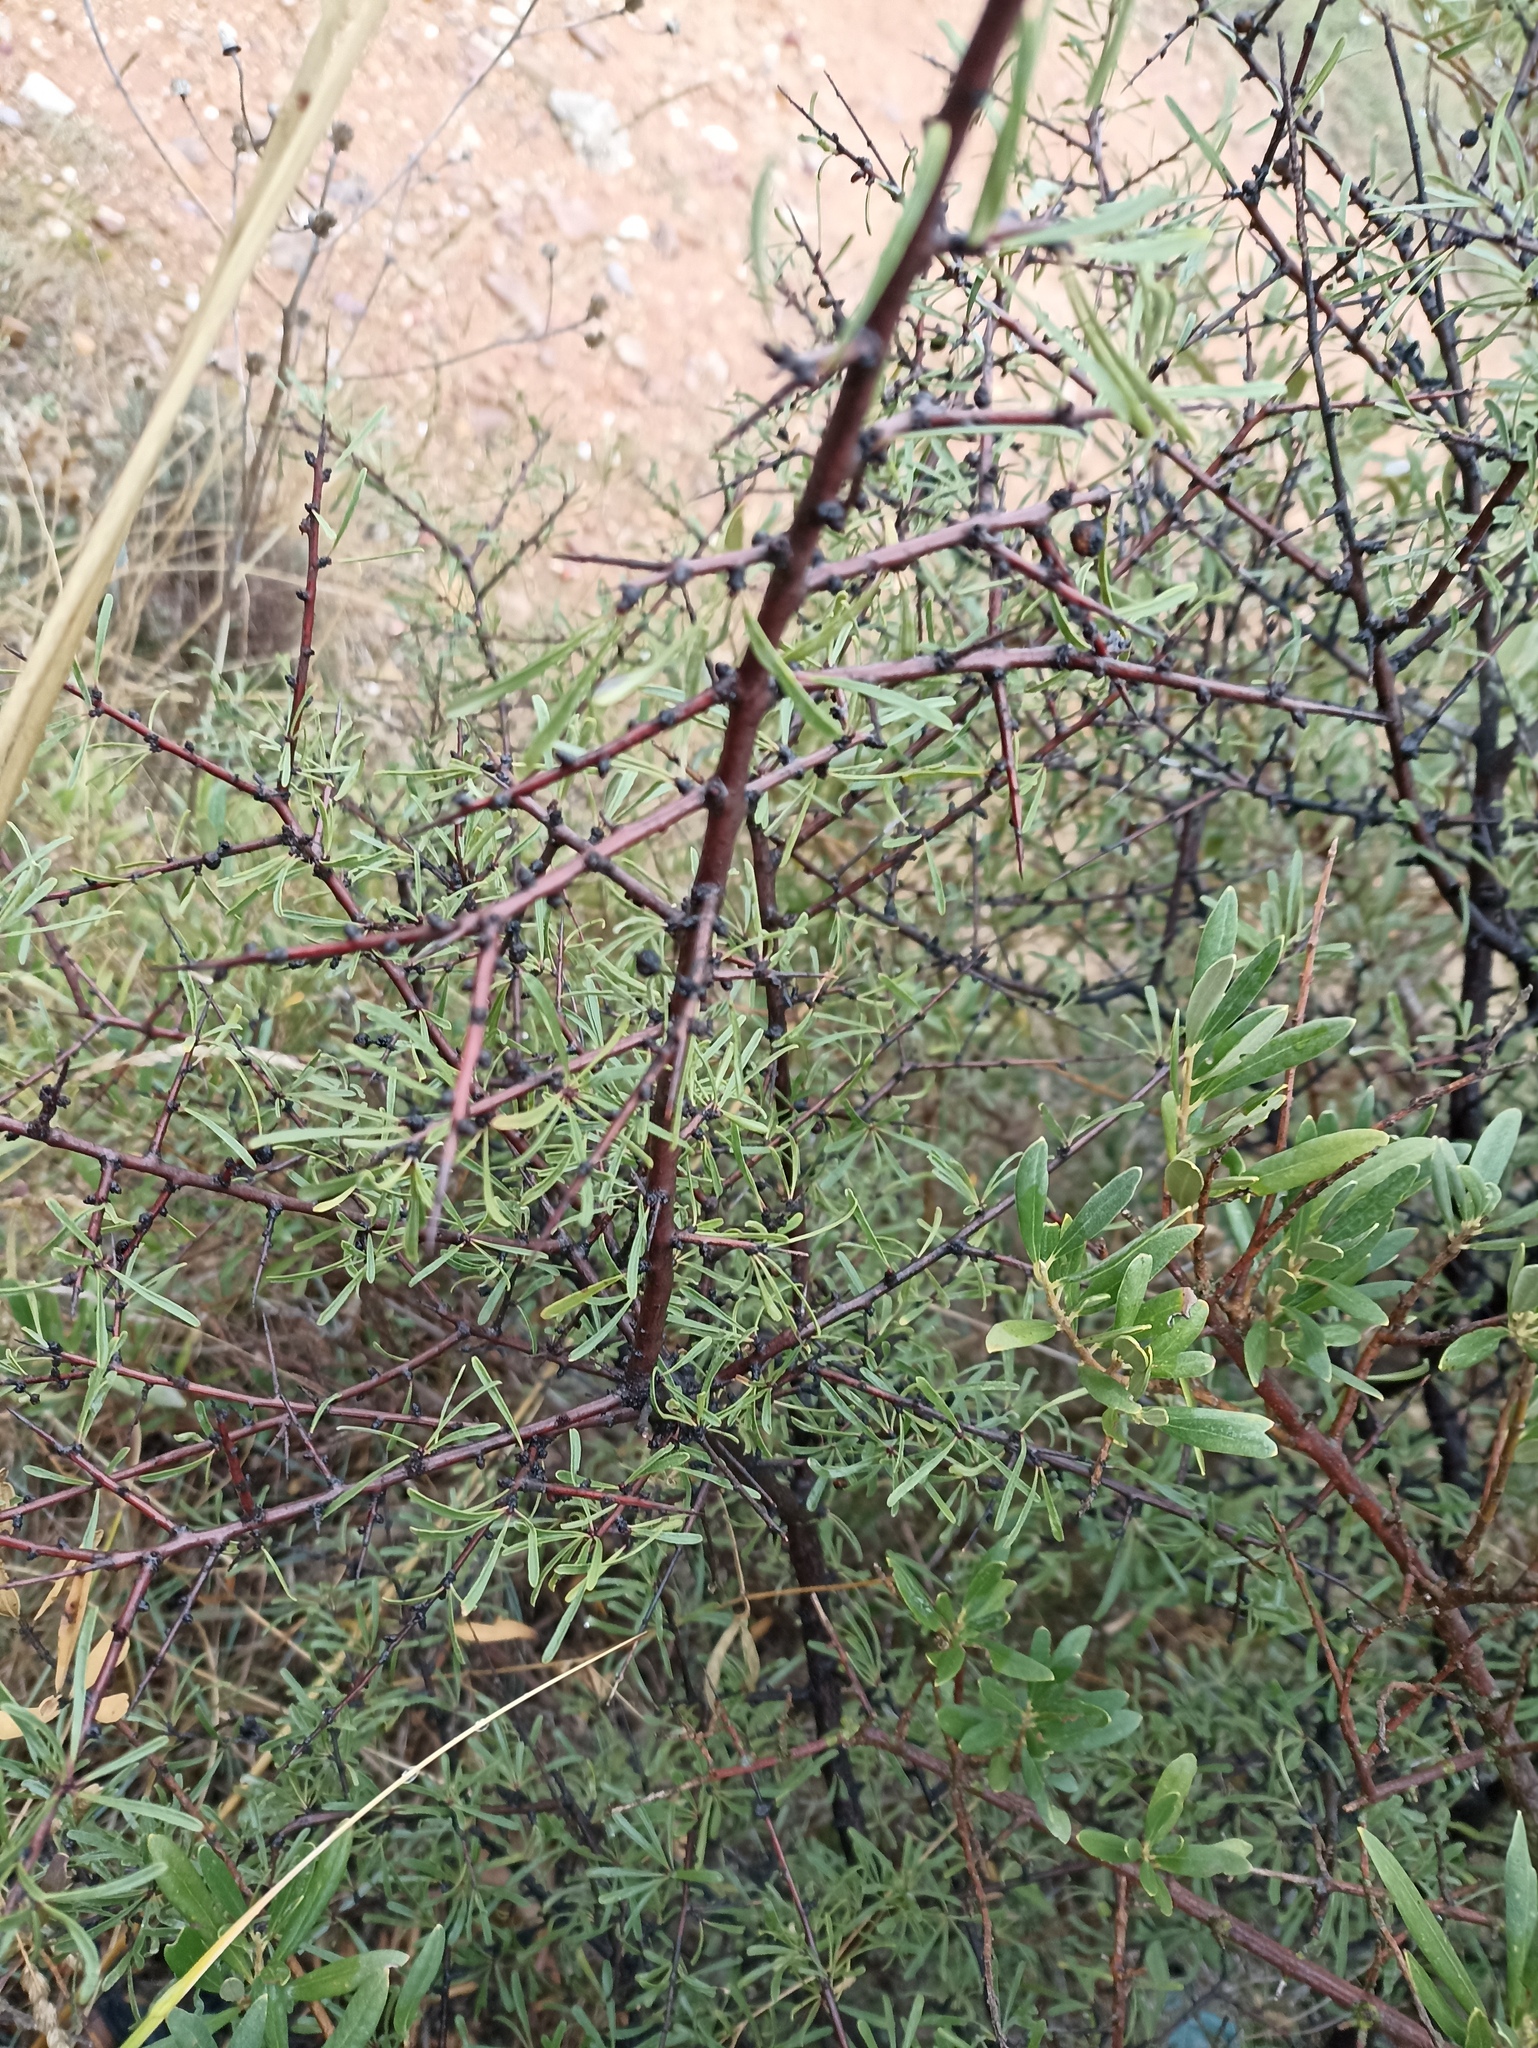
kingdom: Plantae
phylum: Tracheophyta
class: Magnoliopsida
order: Rosales
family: Rhamnaceae
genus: Rhamnus
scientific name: Rhamnus lycioides
